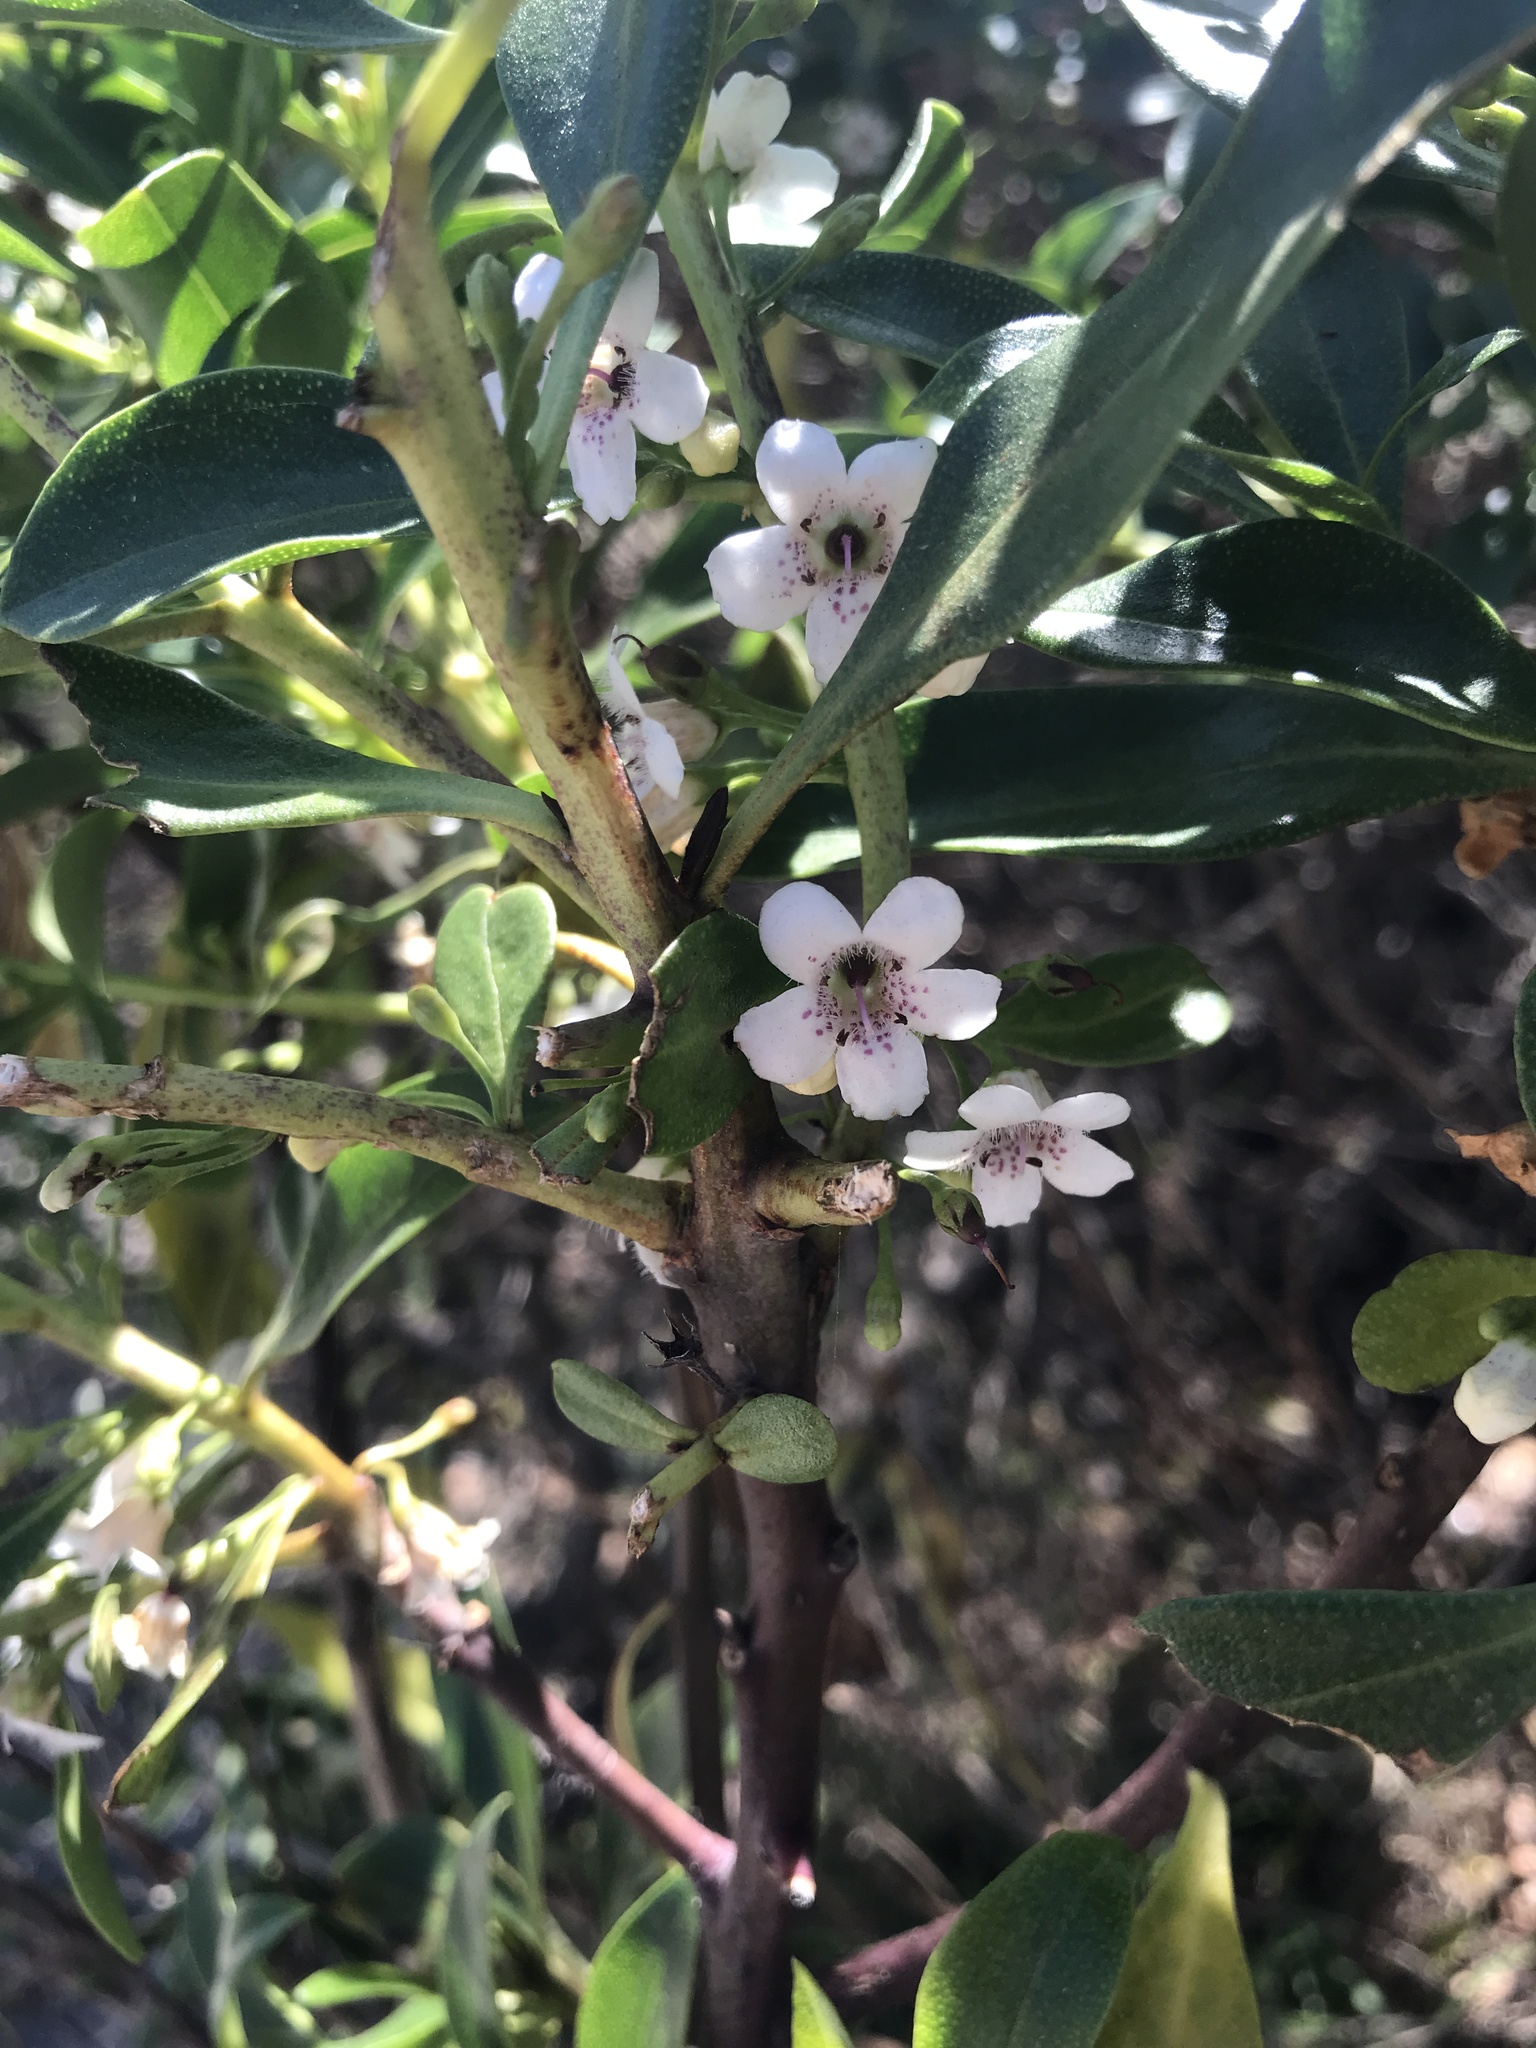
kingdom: Plantae
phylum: Tracheophyta
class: Magnoliopsida
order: Lamiales
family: Scrophulariaceae
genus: Myoporum
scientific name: Myoporum laetum
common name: Ngaio tree
